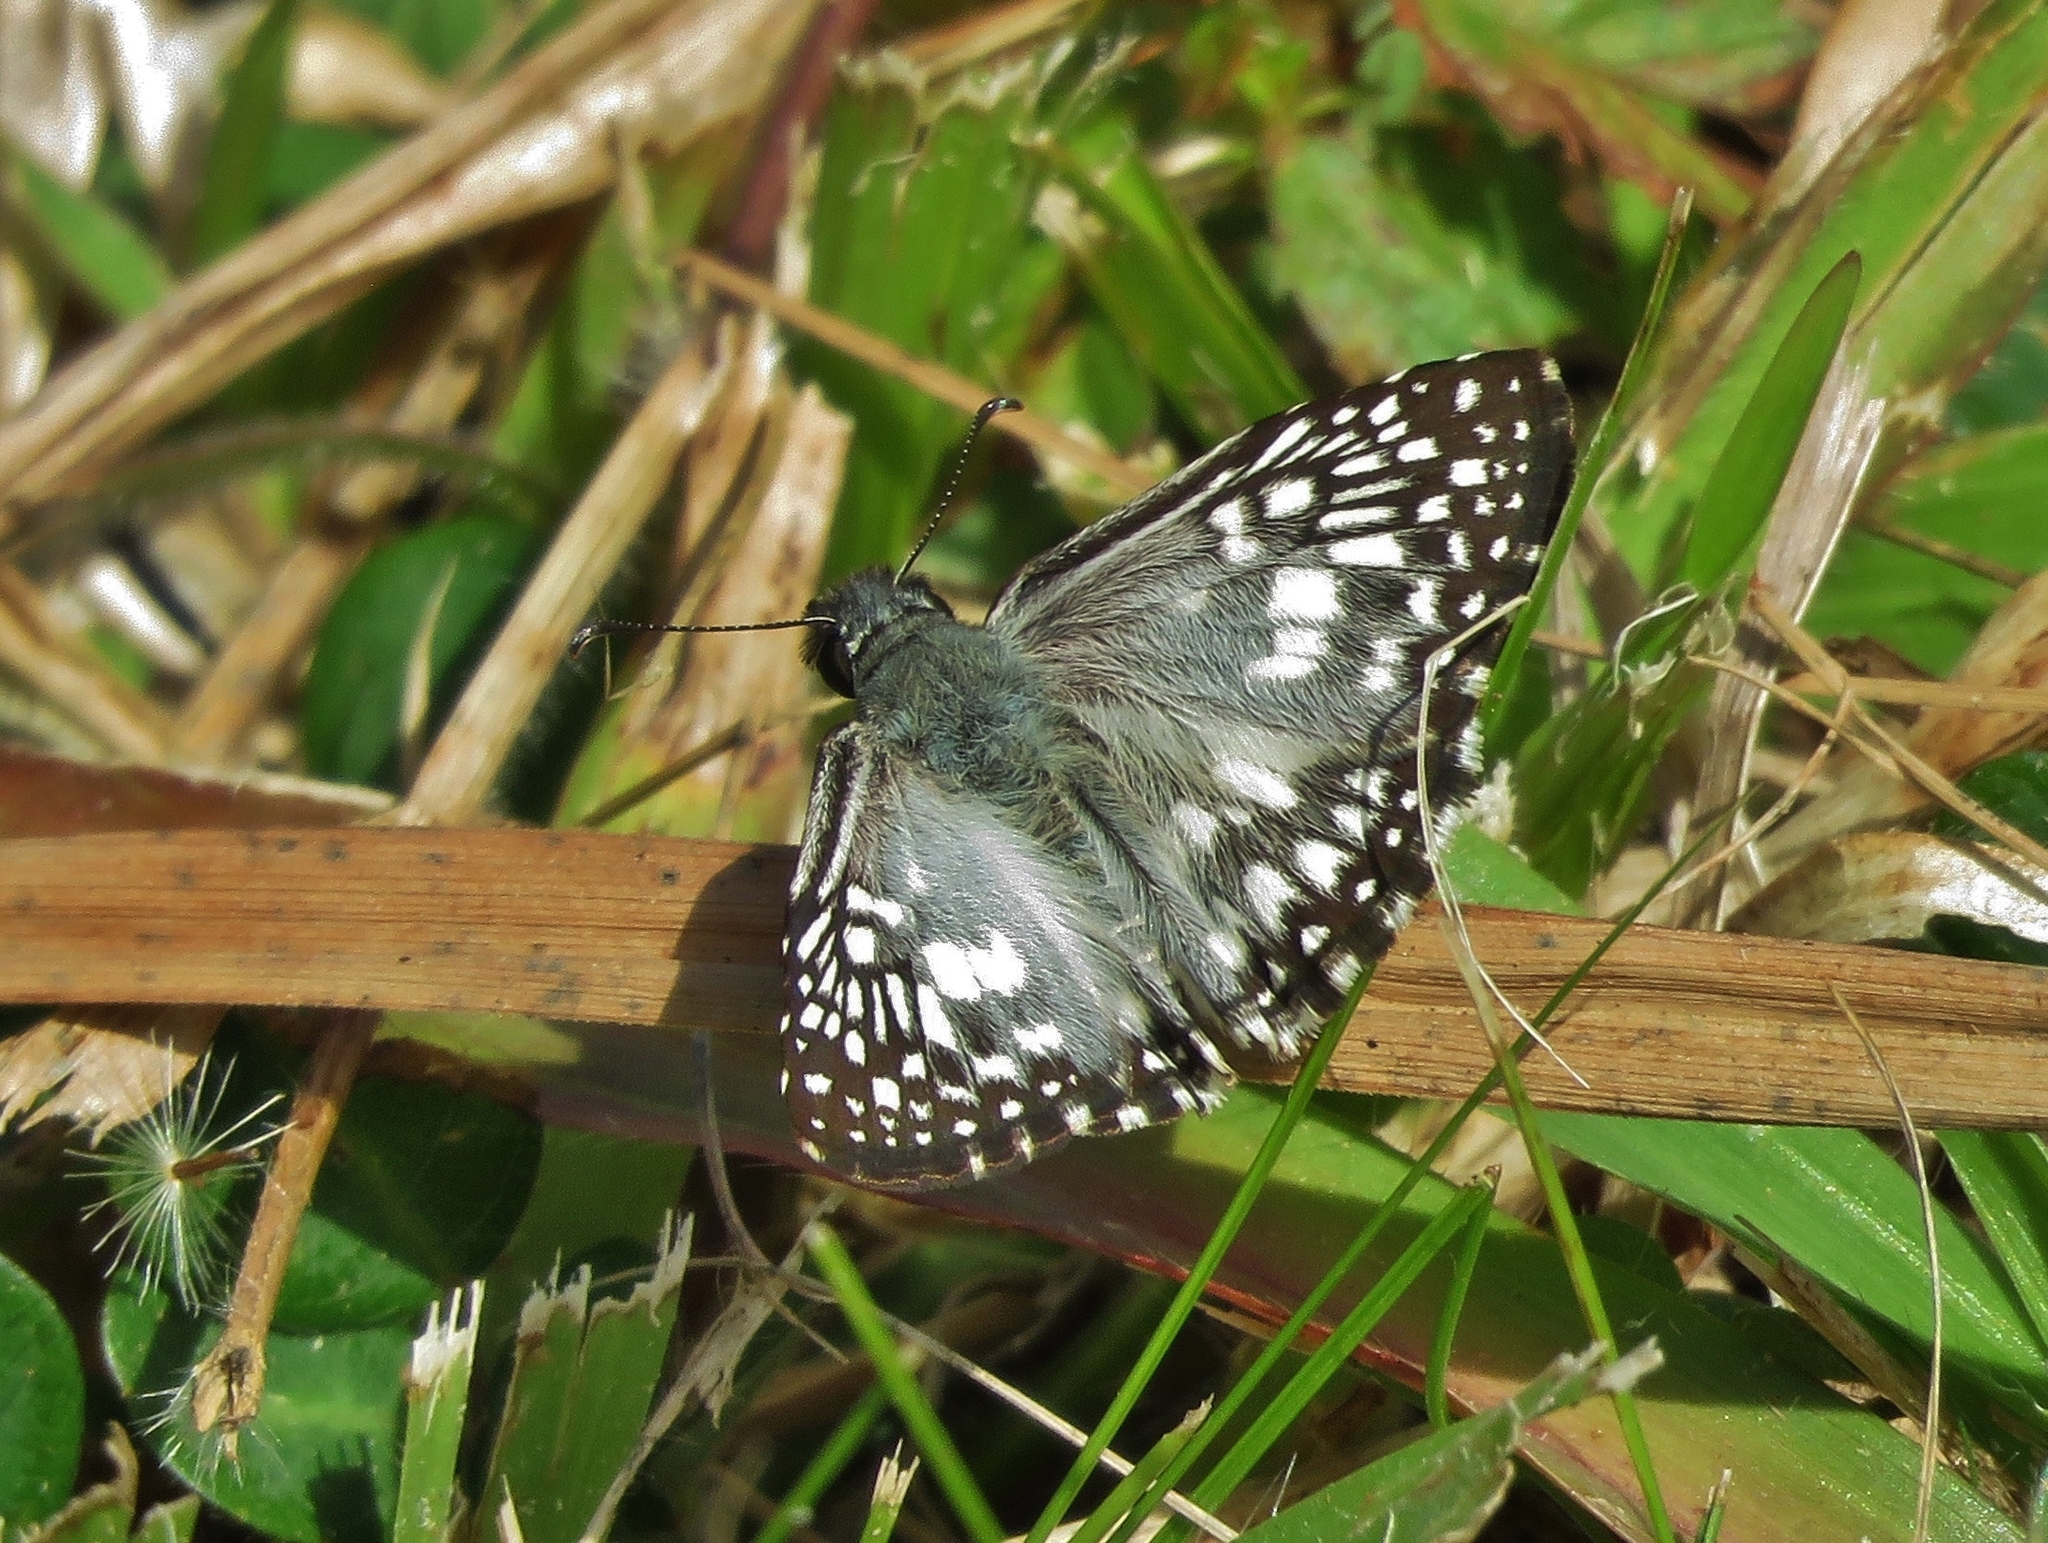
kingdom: Animalia
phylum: Arthropoda
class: Insecta
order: Lepidoptera
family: Hesperiidae
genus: Pyrgus
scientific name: Pyrgus oileus
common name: Tropical checkered-skipper
